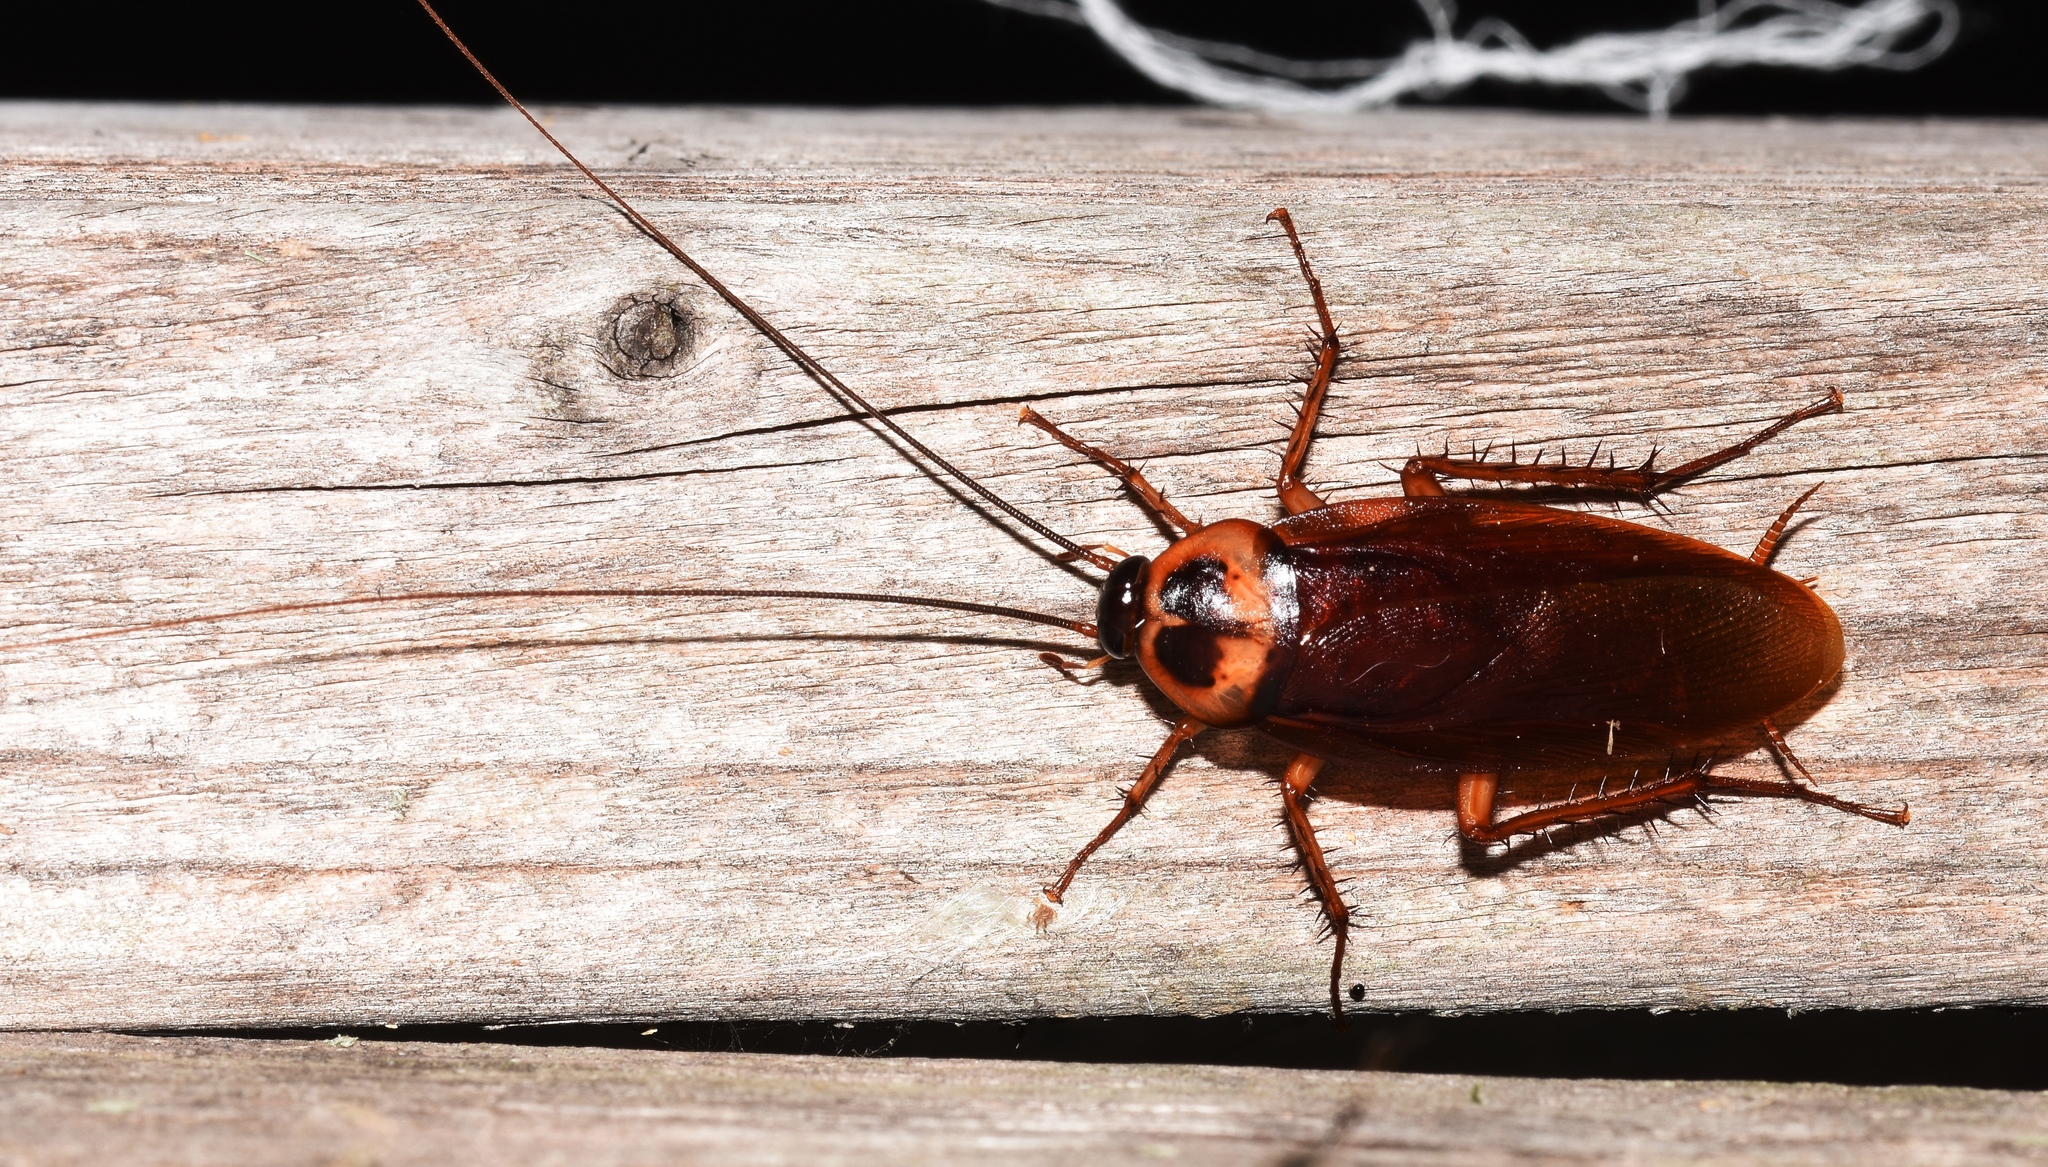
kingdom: Animalia
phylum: Arthropoda
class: Insecta
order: Blattodea
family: Blattidae
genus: Periplaneta
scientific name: Periplaneta australasiae
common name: Australian cockroach
